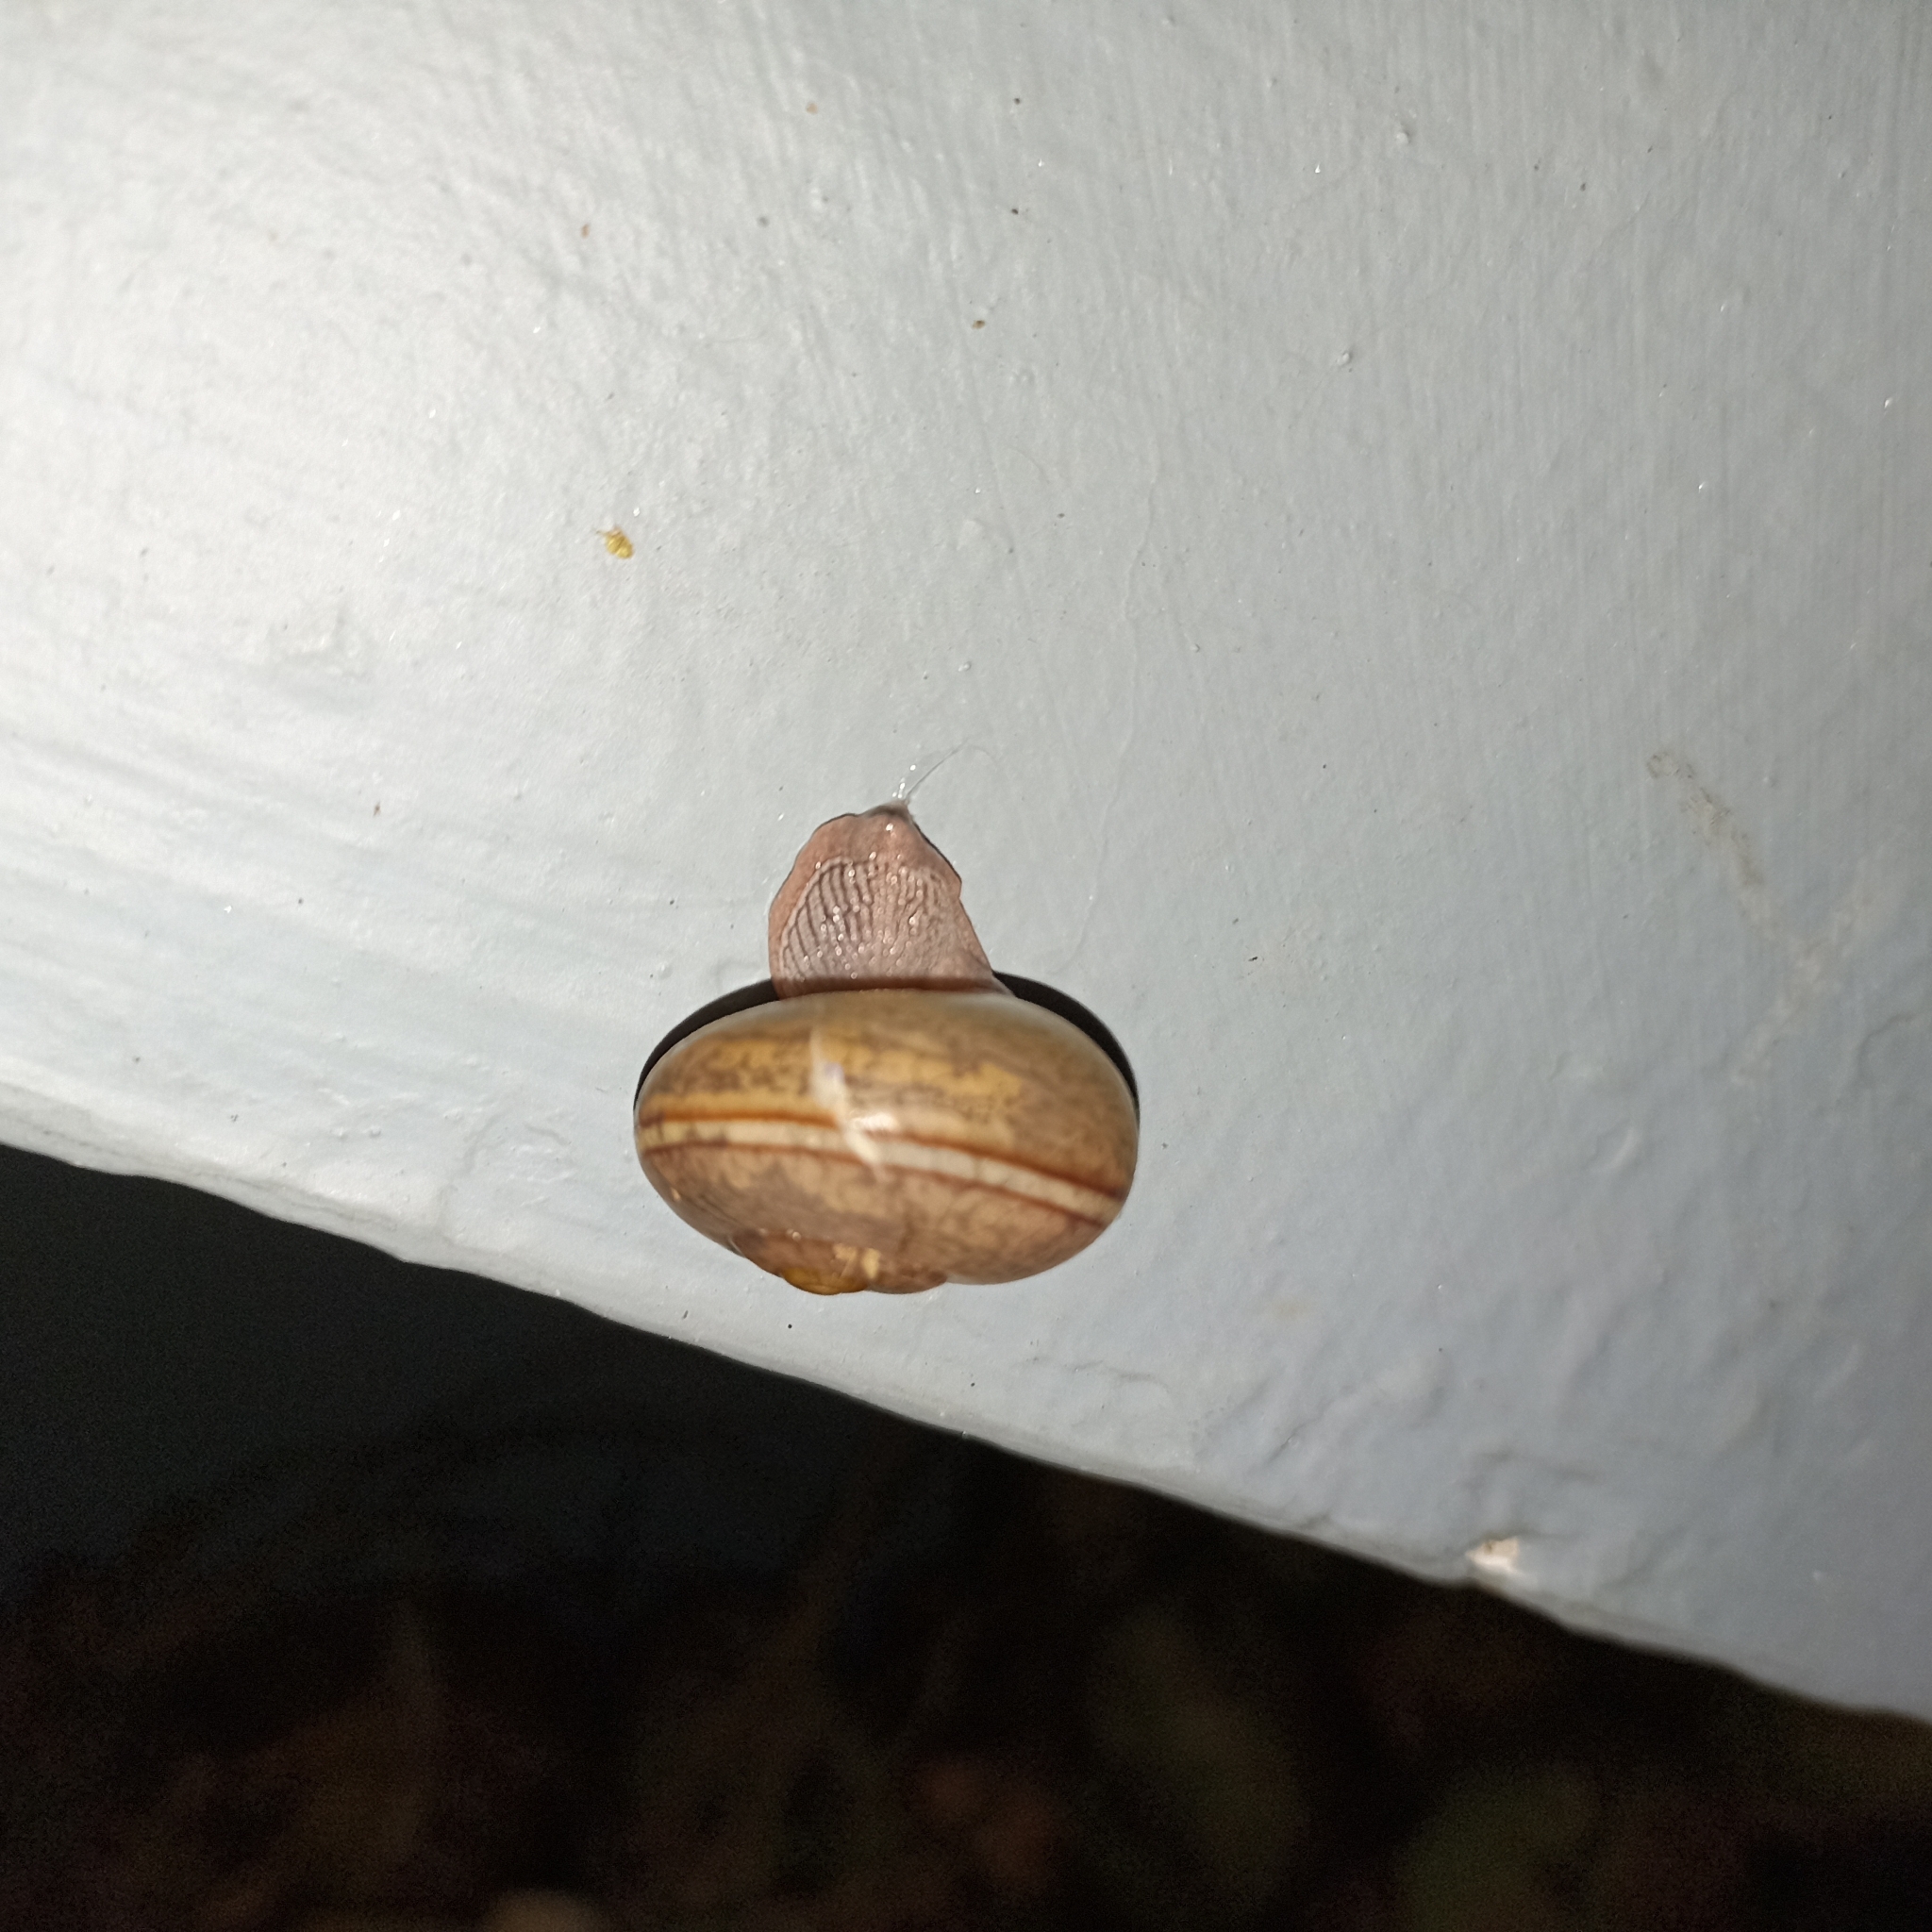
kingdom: Animalia
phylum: Mollusca
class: Gastropoda
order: Stylommatophora
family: Ariophantidae
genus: Ariophanta
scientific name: Ariophanta exilis
